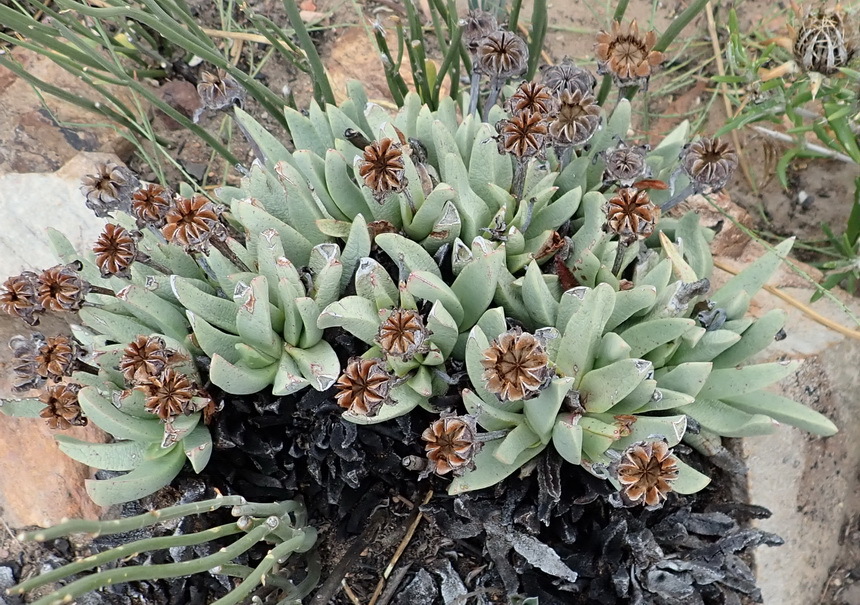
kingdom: Plantae
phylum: Tracheophyta
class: Magnoliopsida
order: Caryophyllales
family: Aizoaceae
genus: Machairophyllum
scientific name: Machairophyllum albidum
